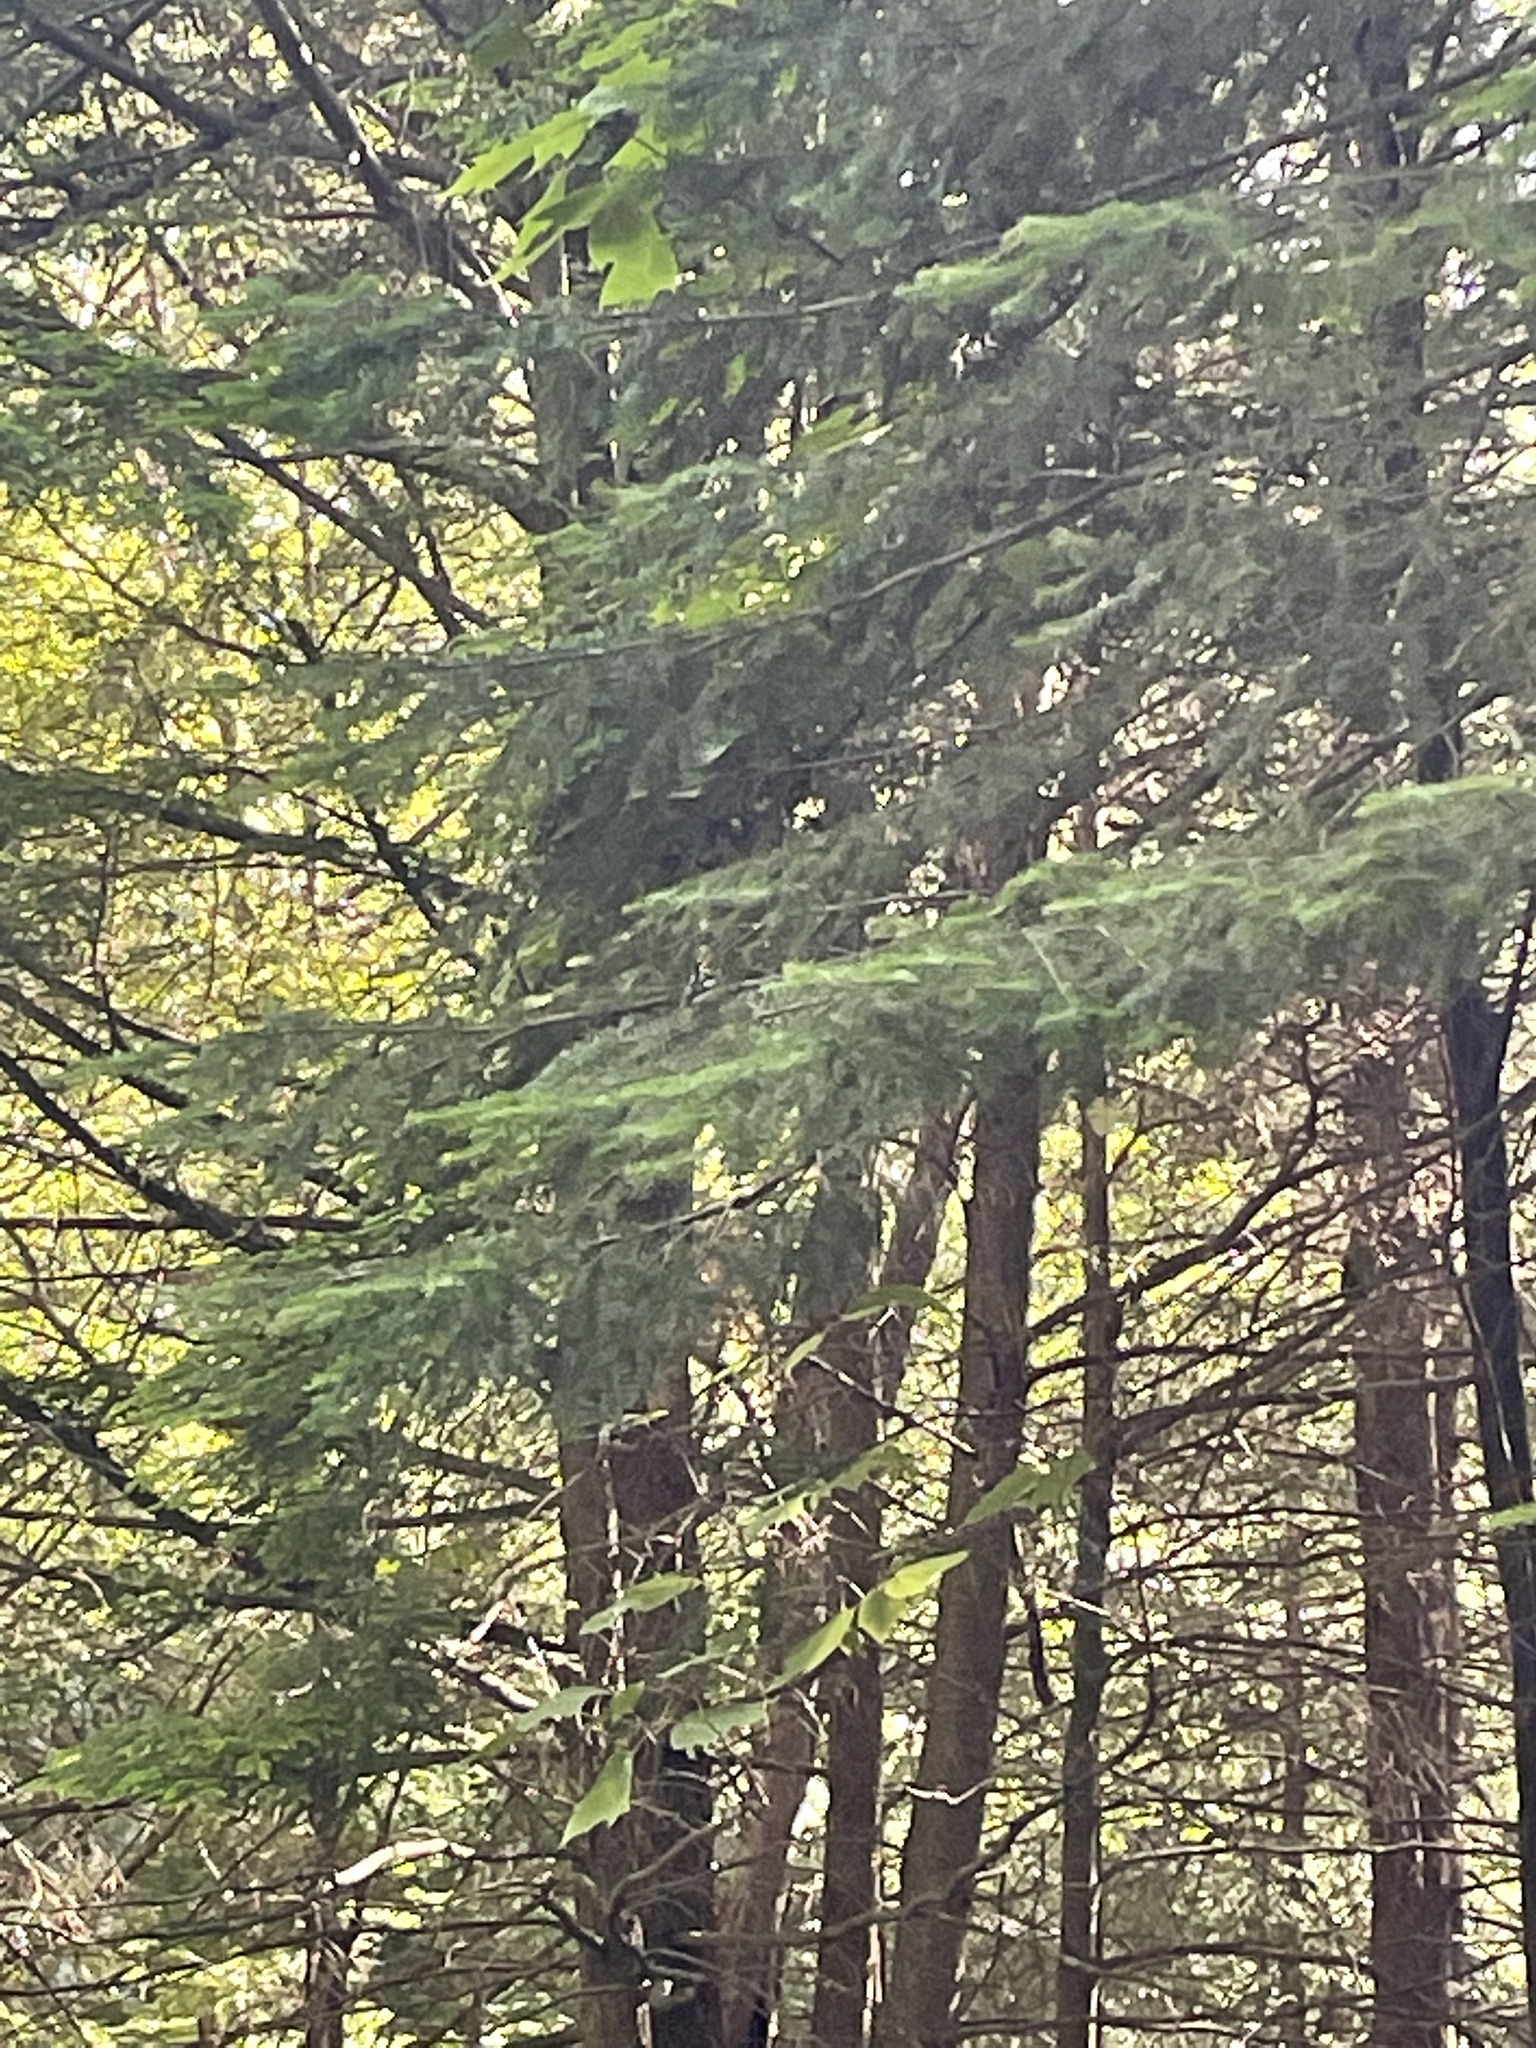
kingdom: Animalia
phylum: Chordata
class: Aves
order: Passeriformes
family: Parulidae
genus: Setophaga
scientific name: Setophaga fusca
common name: Blackburnian warbler
